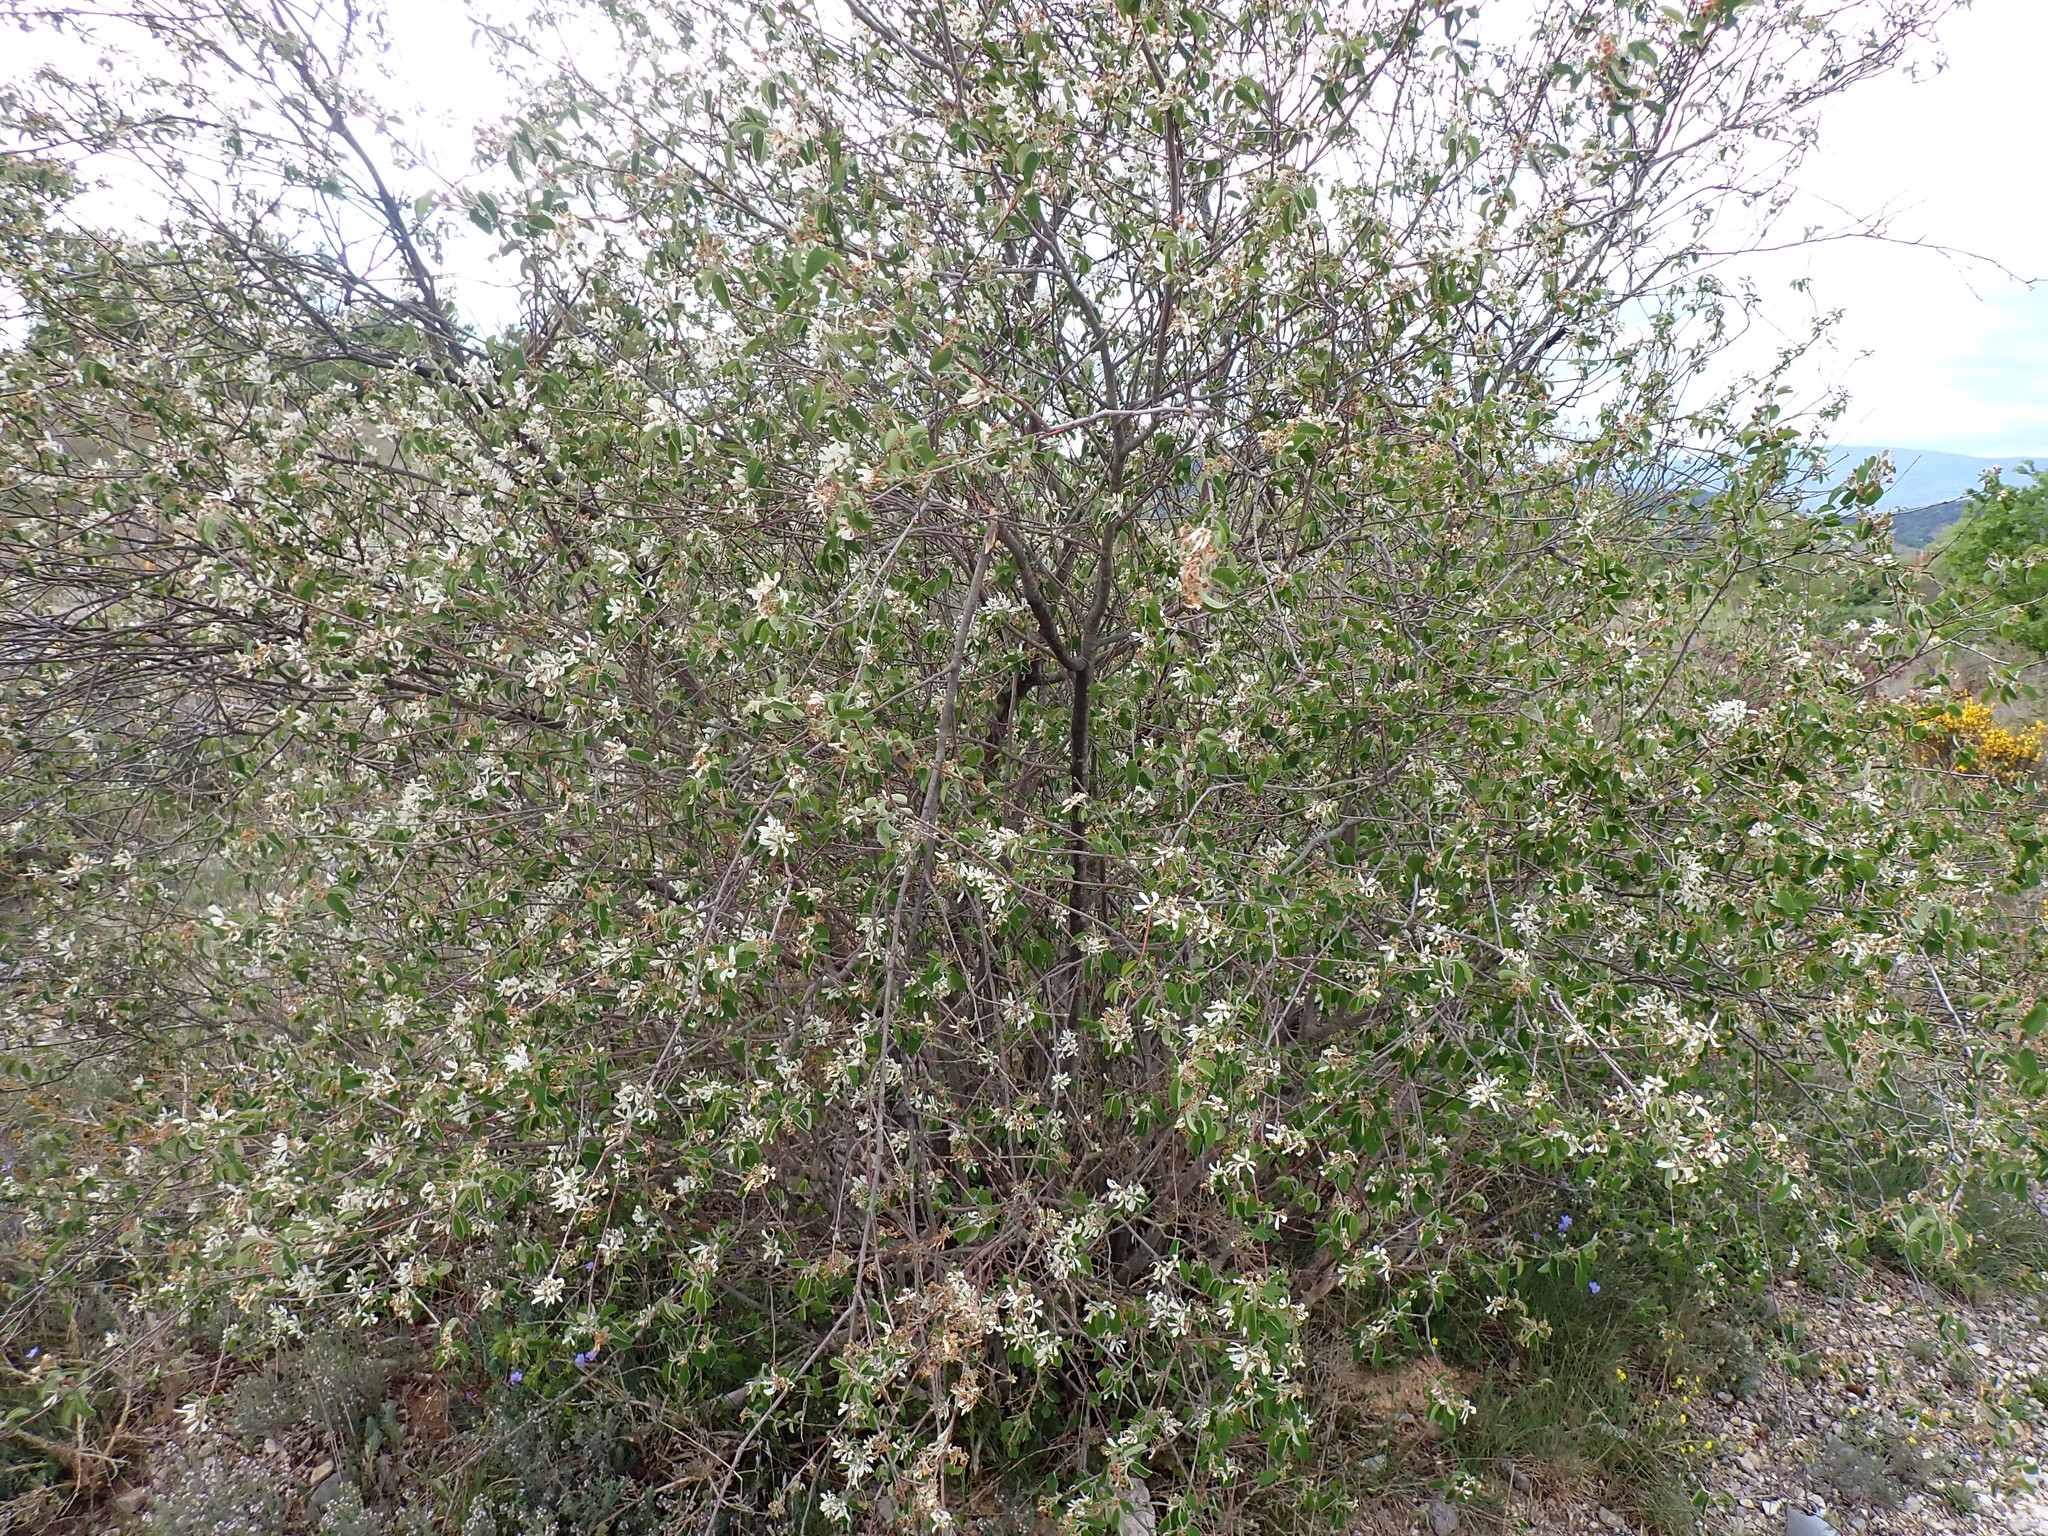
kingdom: Plantae
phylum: Tracheophyta
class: Magnoliopsida
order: Rosales
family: Rosaceae
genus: Amelanchier
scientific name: Amelanchier ovalis
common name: Serviceberry
